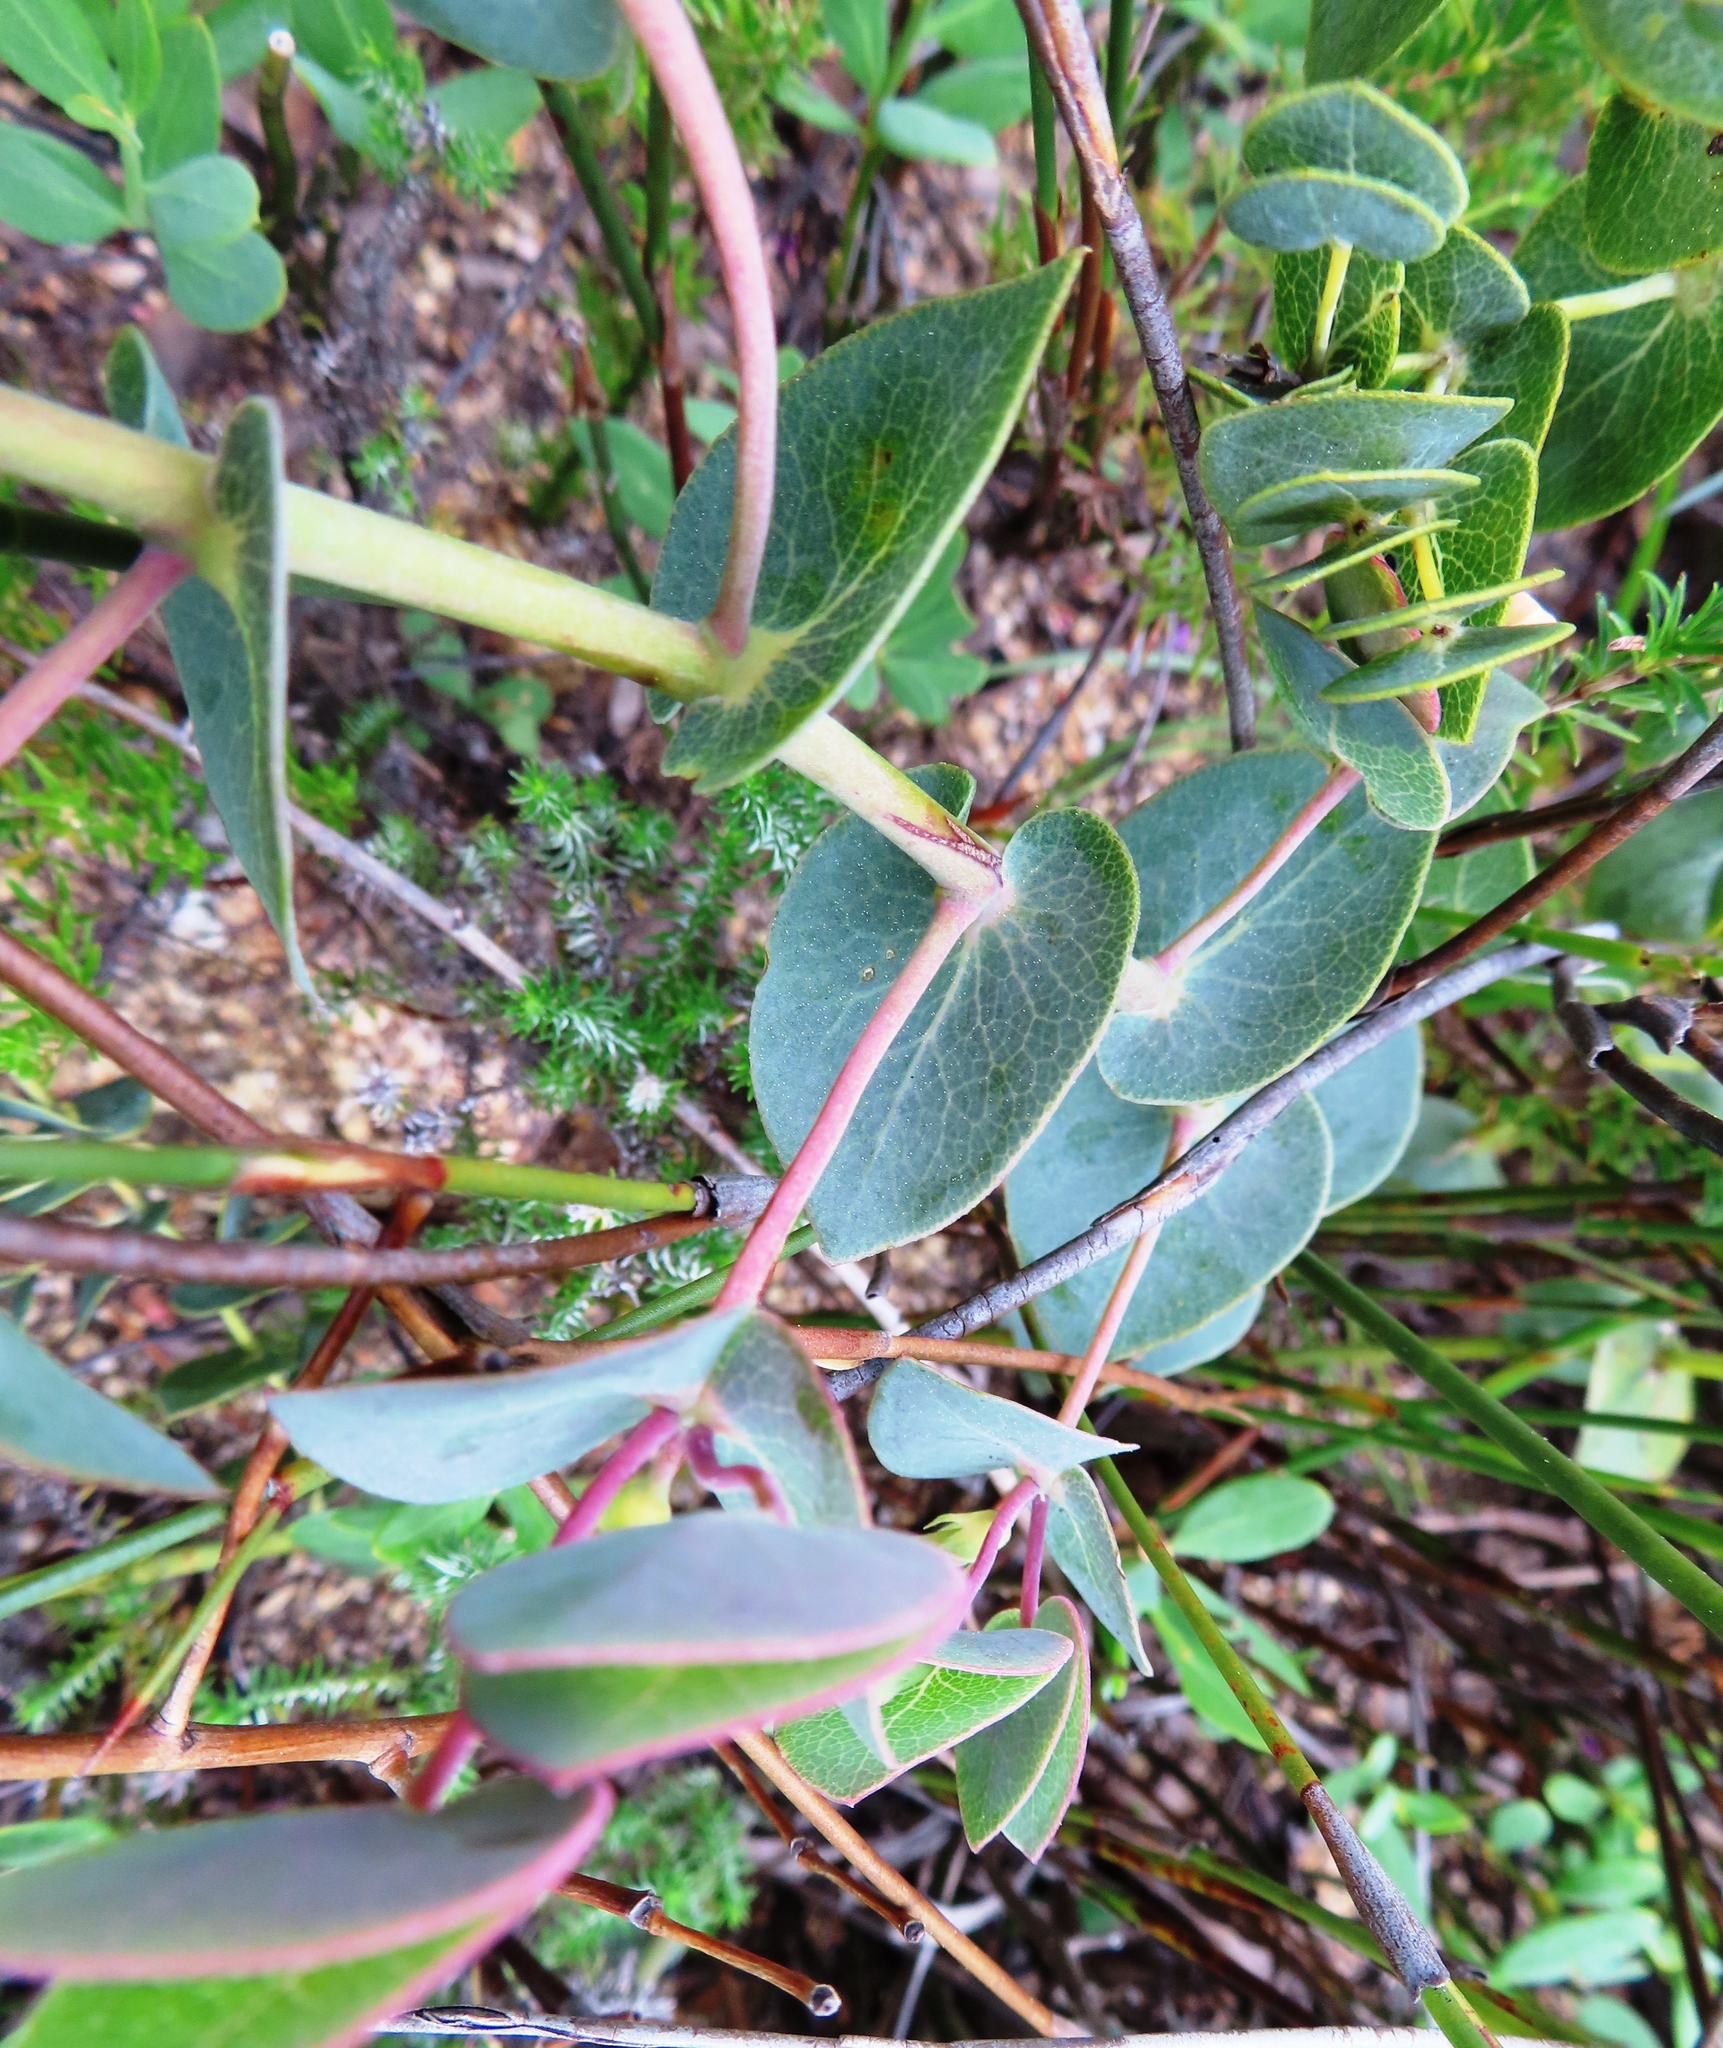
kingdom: Plantae
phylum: Tracheophyta
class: Magnoliopsida
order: Fabales
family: Fabaceae
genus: Rafnia
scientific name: Rafnia acuminata
